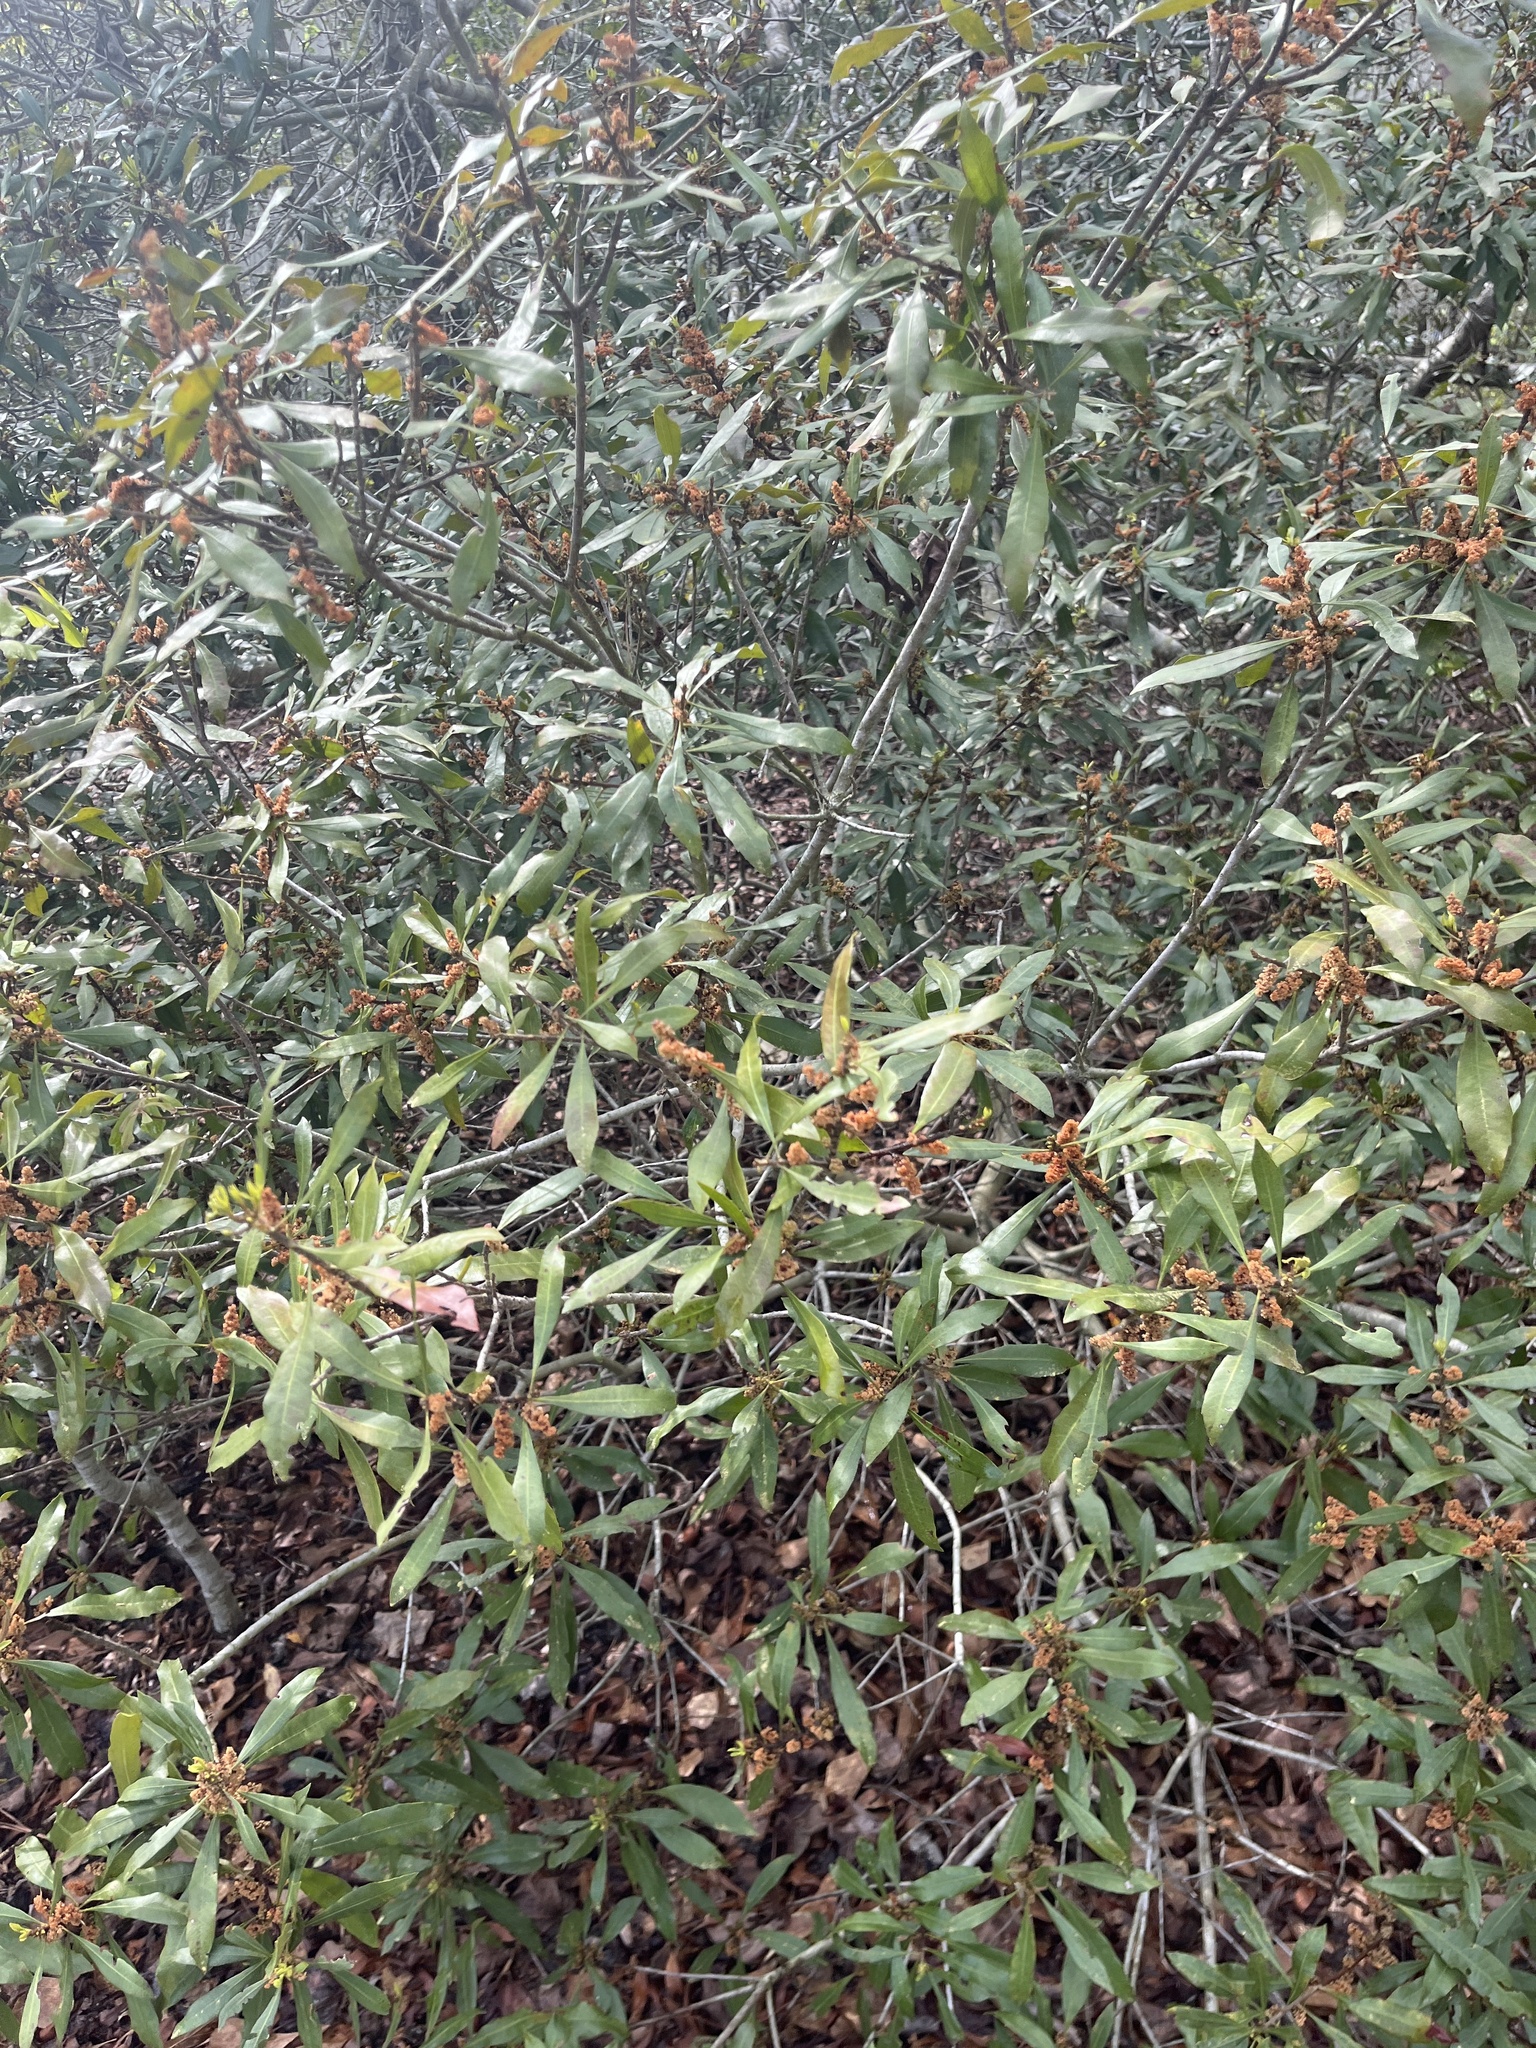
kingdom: Plantae
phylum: Tracheophyta
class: Magnoliopsida
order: Fagales
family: Myricaceae
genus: Morella
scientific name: Morella cerifera
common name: Wax myrtle
